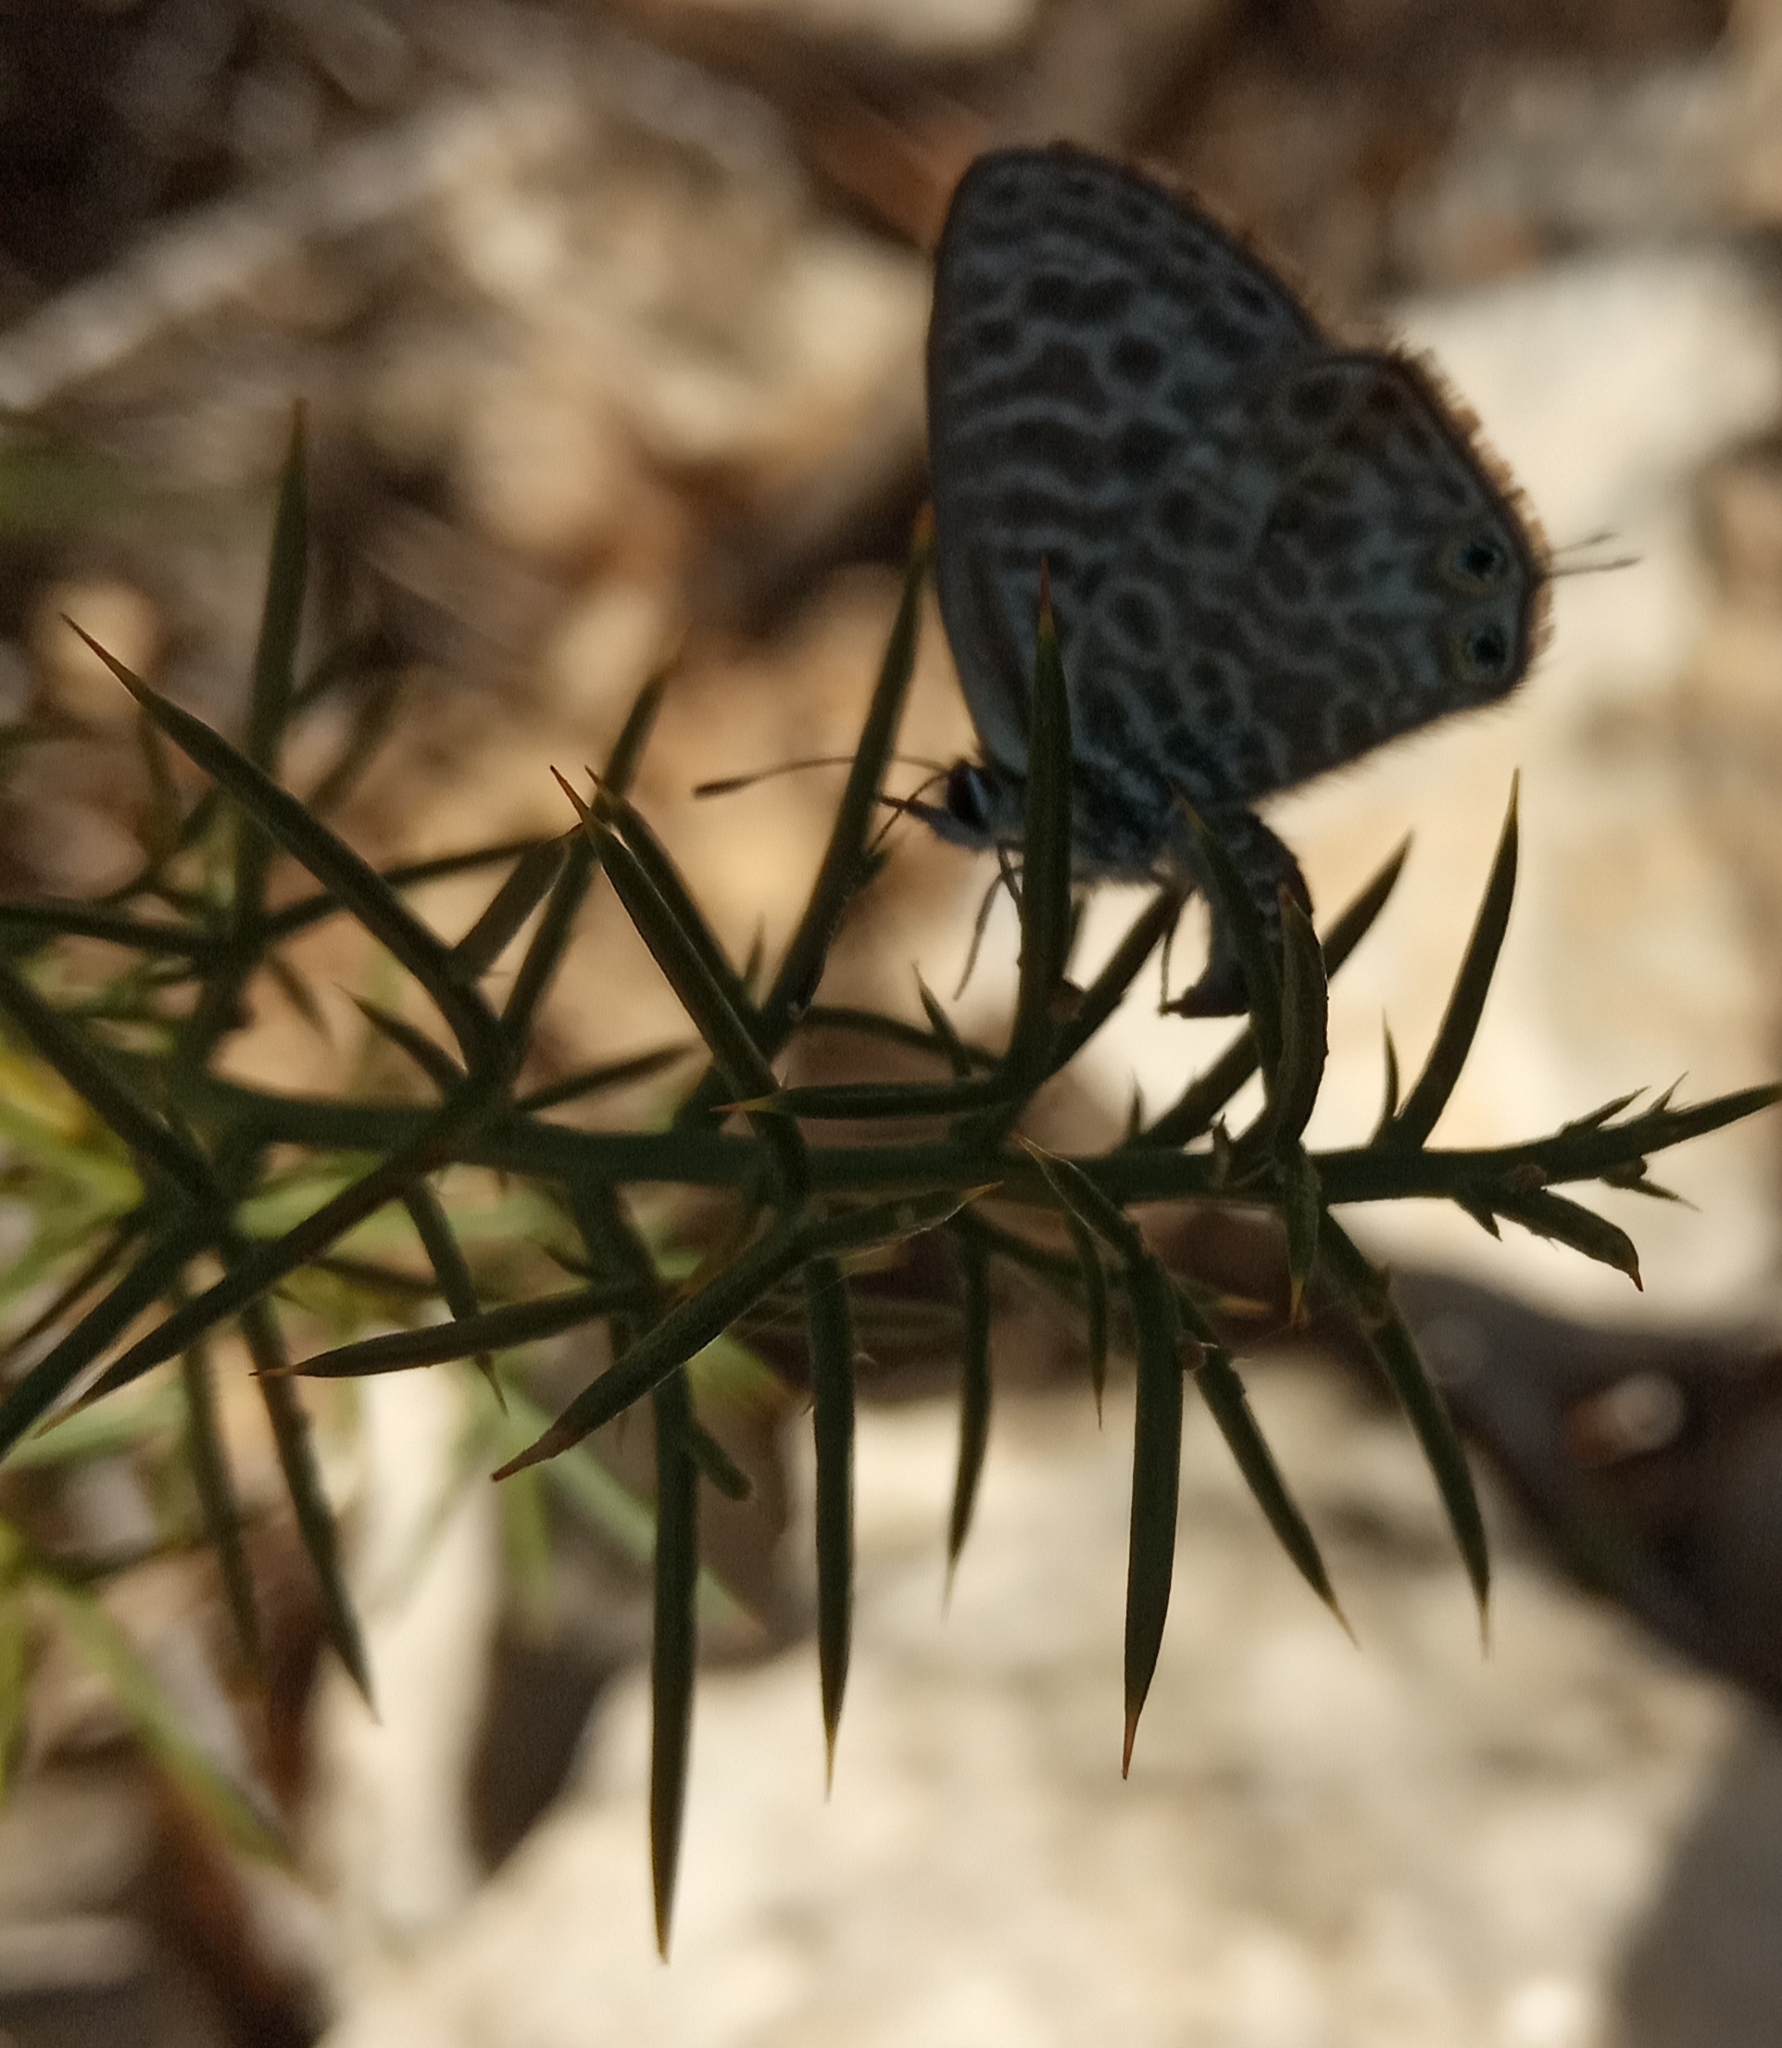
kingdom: Animalia
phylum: Arthropoda
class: Insecta
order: Lepidoptera
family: Lycaenidae
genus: Leptotes
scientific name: Leptotes pirithous
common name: Lang's short-tailed blue
